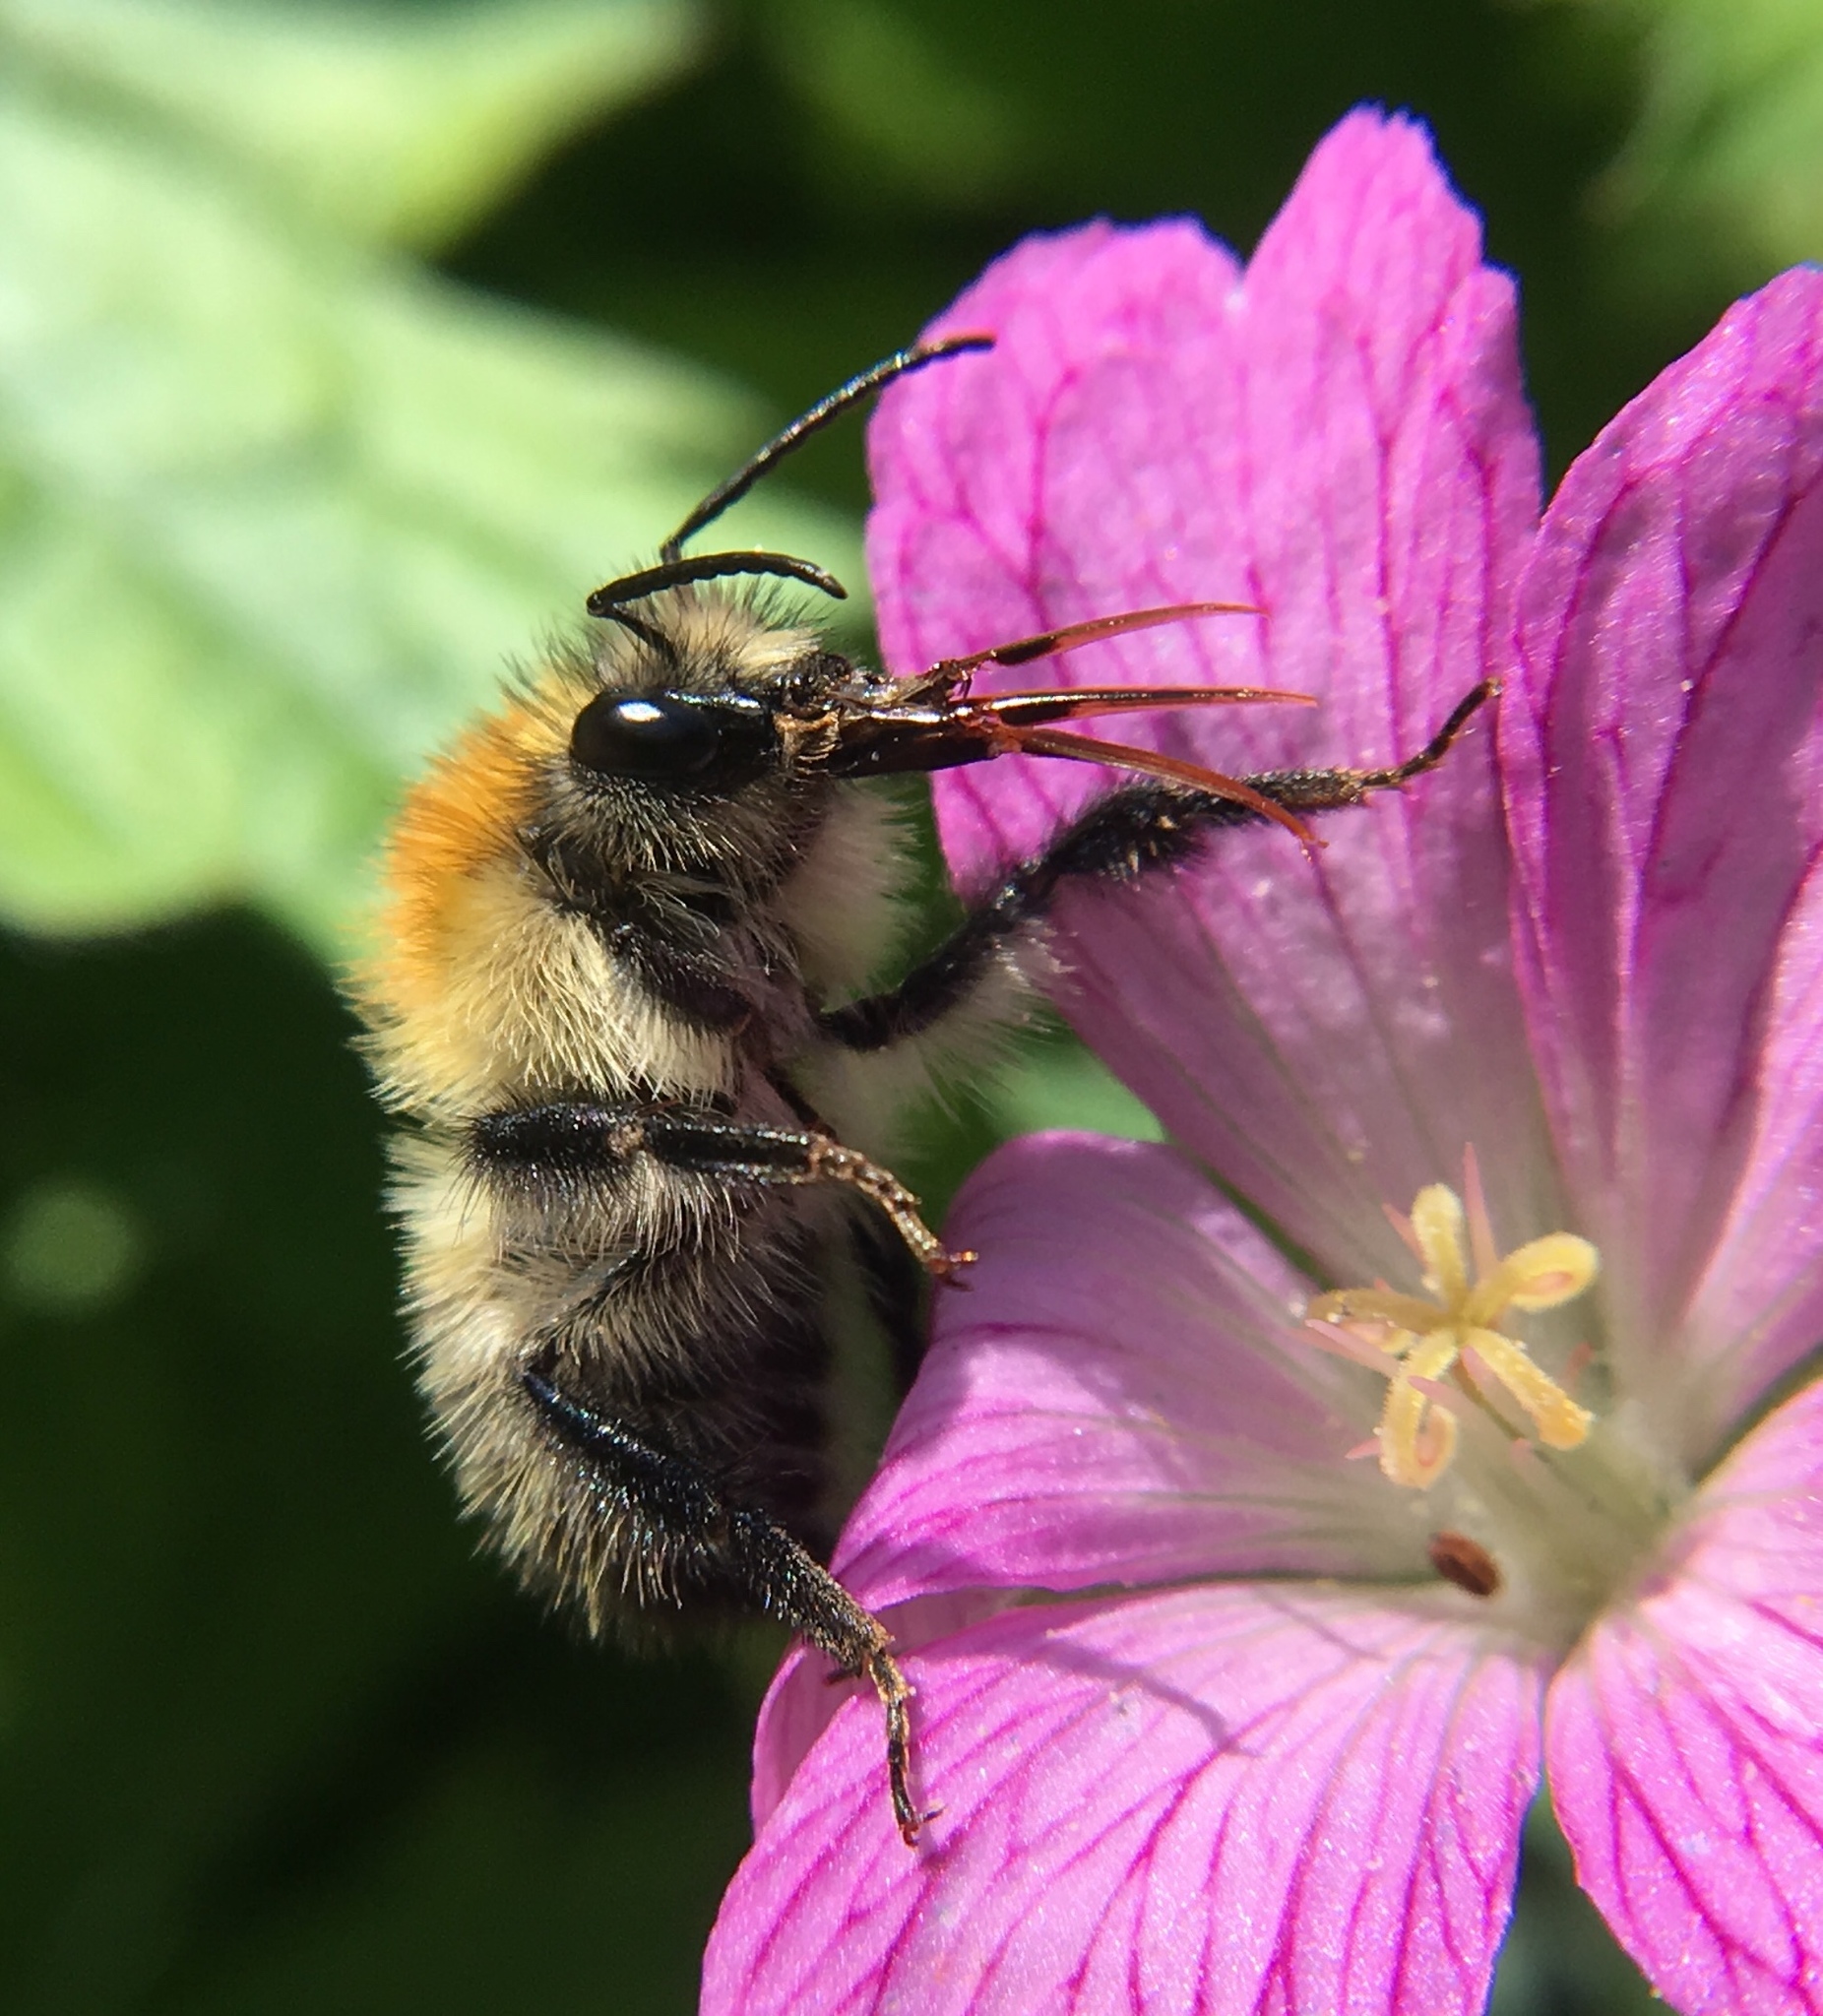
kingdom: Animalia
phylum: Arthropoda
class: Insecta
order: Hymenoptera
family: Apidae
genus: Bombus
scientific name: Bombus pascuorum
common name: Common carder bee
